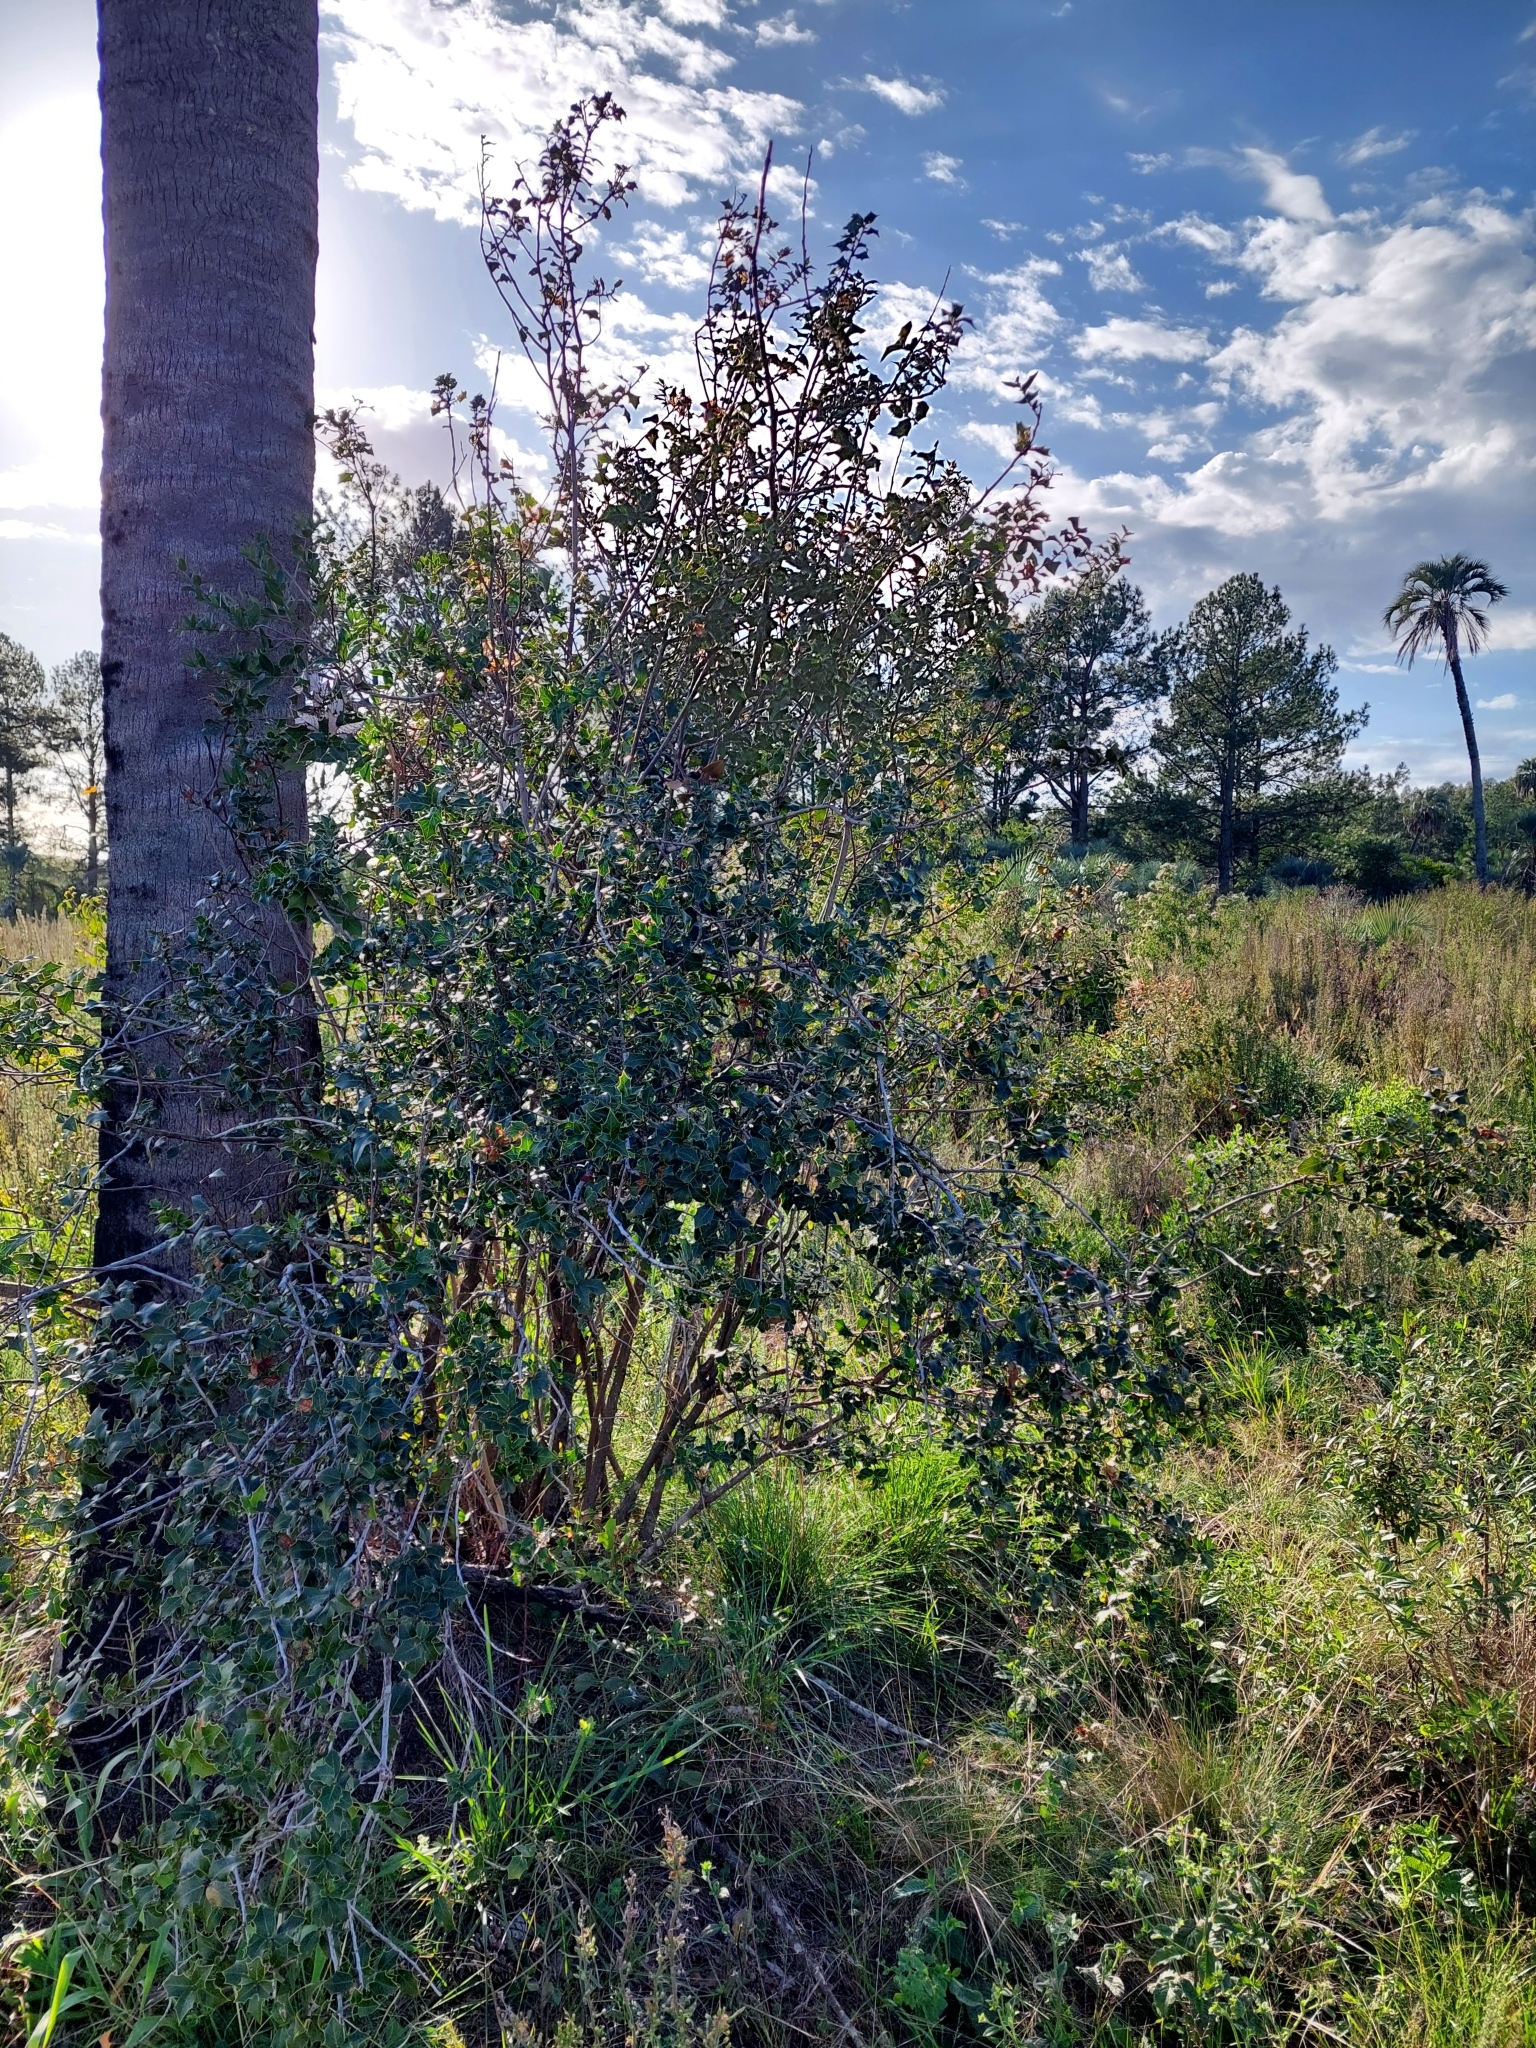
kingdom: Plantae
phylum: Tracheophyta
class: Magnoliopsida
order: Celastrales
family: Celastraceae
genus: Monteverdia
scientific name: Monteverdia
